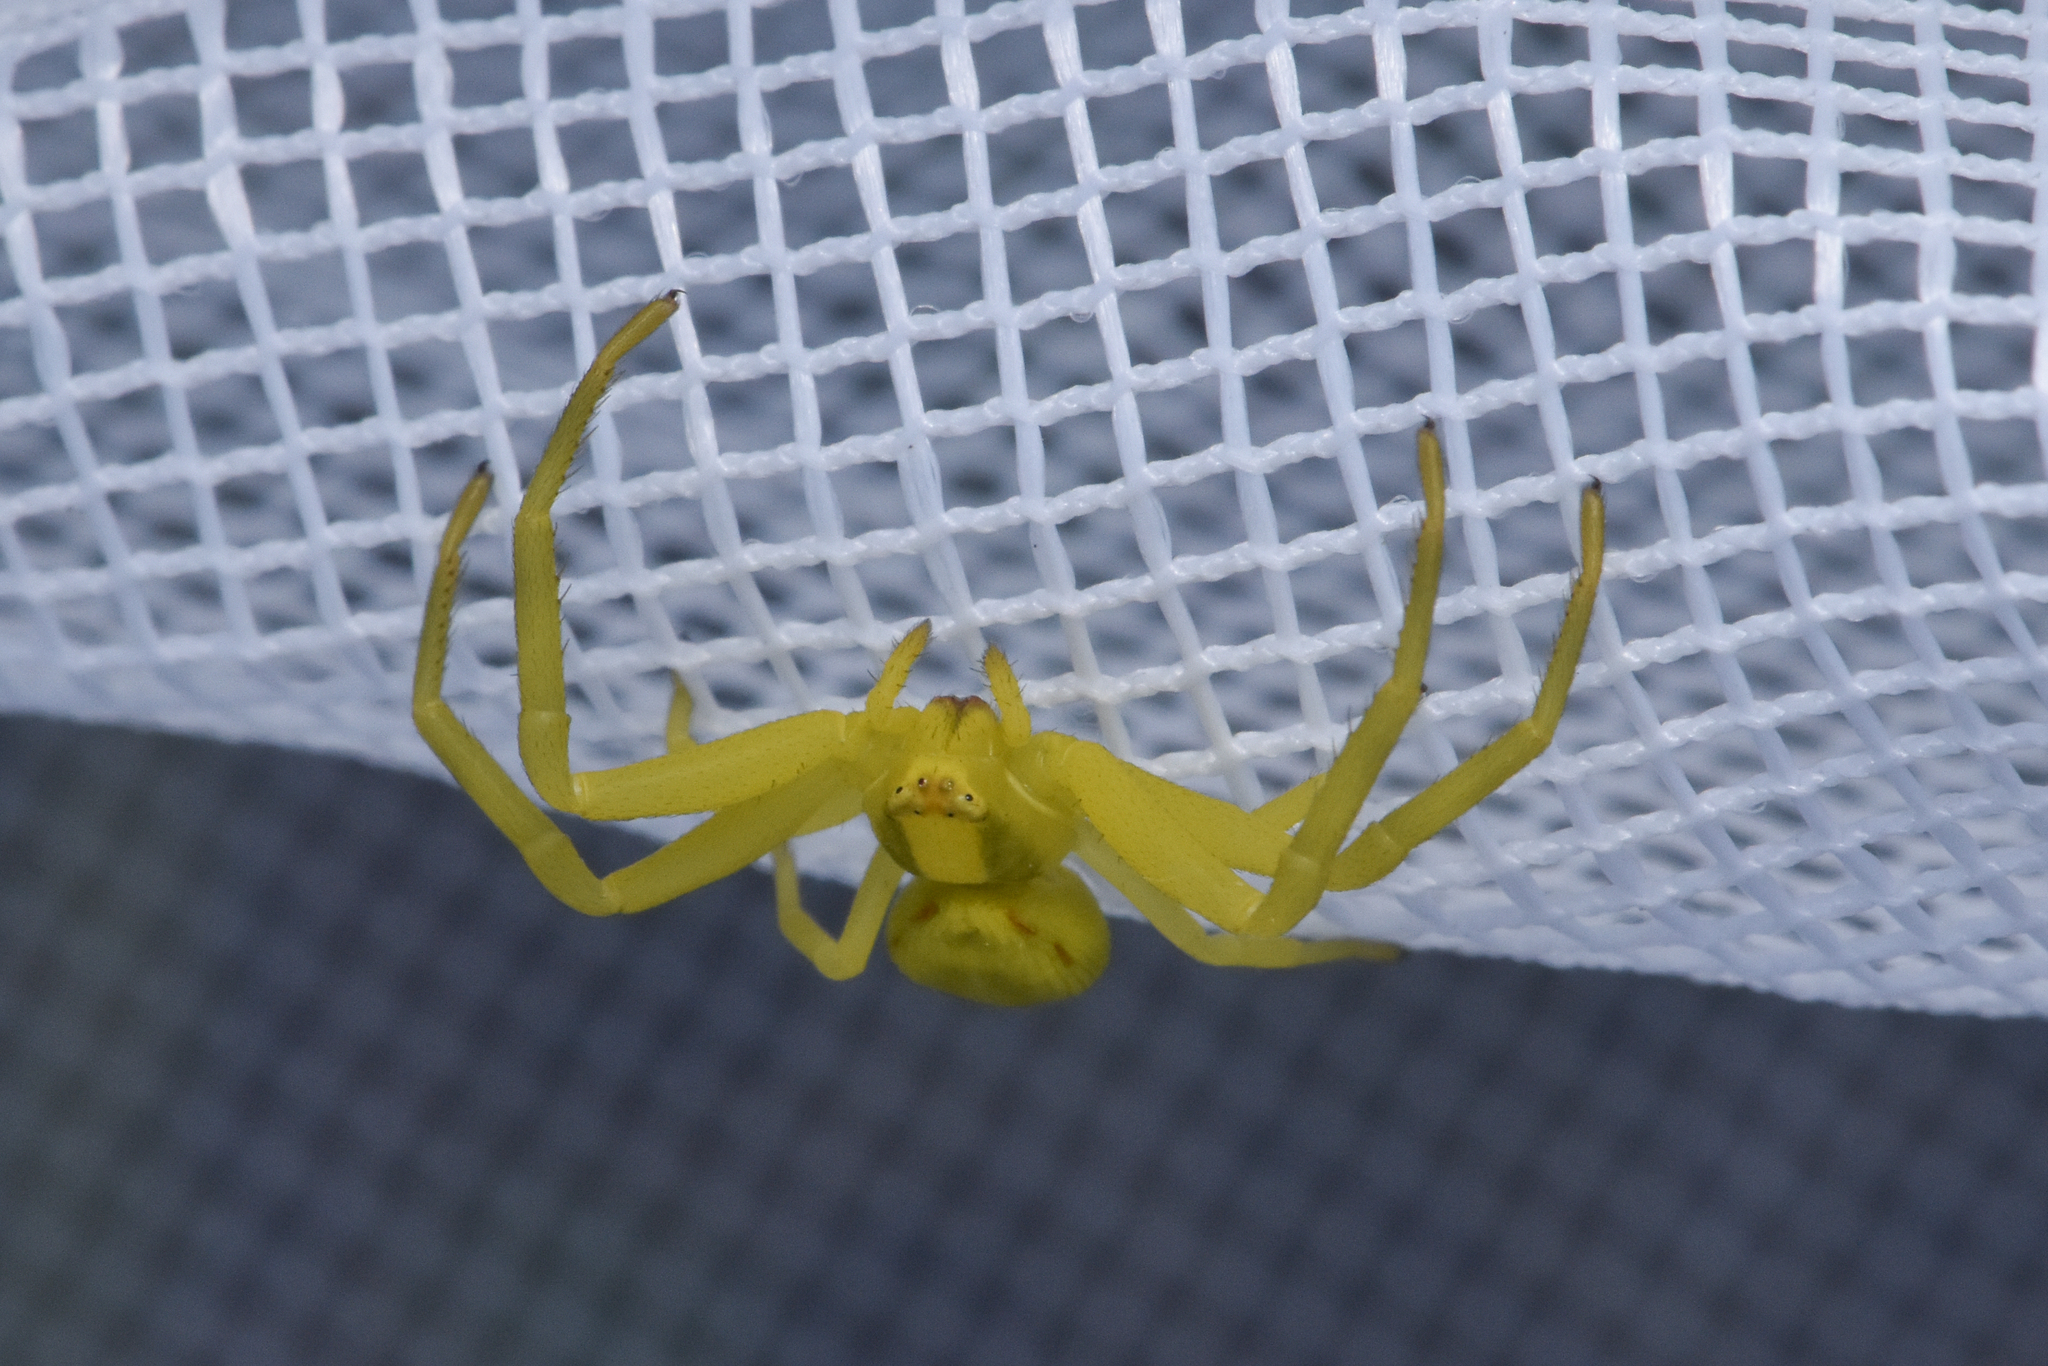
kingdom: Animalia
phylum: Arthropoda
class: Arachnida
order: Araneae
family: Thomisidae
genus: Misumena
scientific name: Misumena vatia
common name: Goldenrod crab spider
